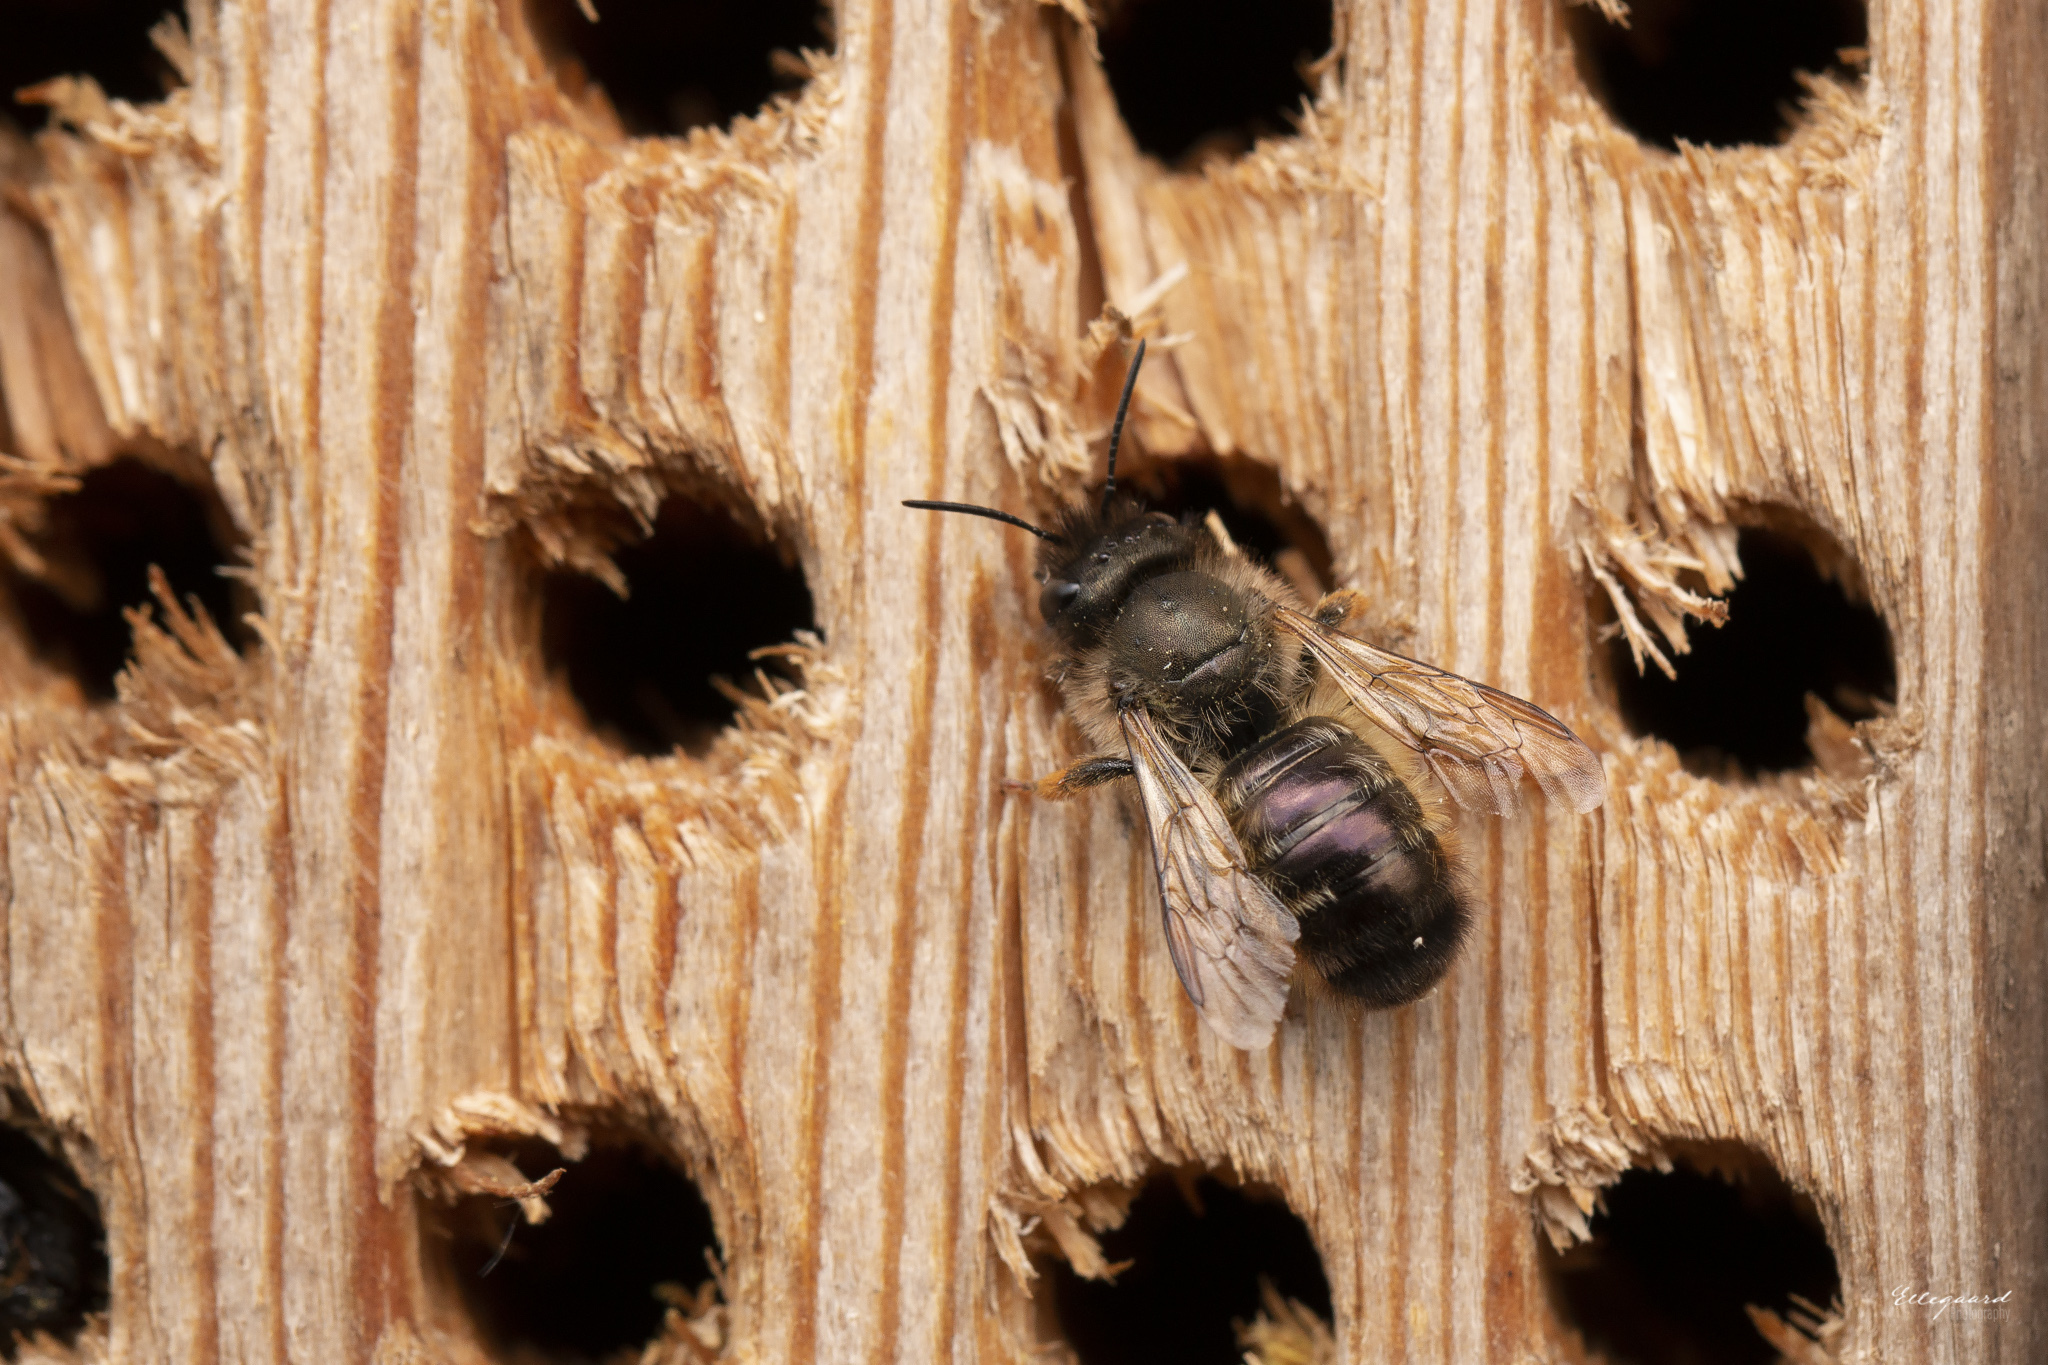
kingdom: Animalia
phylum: Arthropoda
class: Insecta
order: Hymenoptera
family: Megachilidae
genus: Osmia
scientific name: Osmia bicornis
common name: Red mason bee
